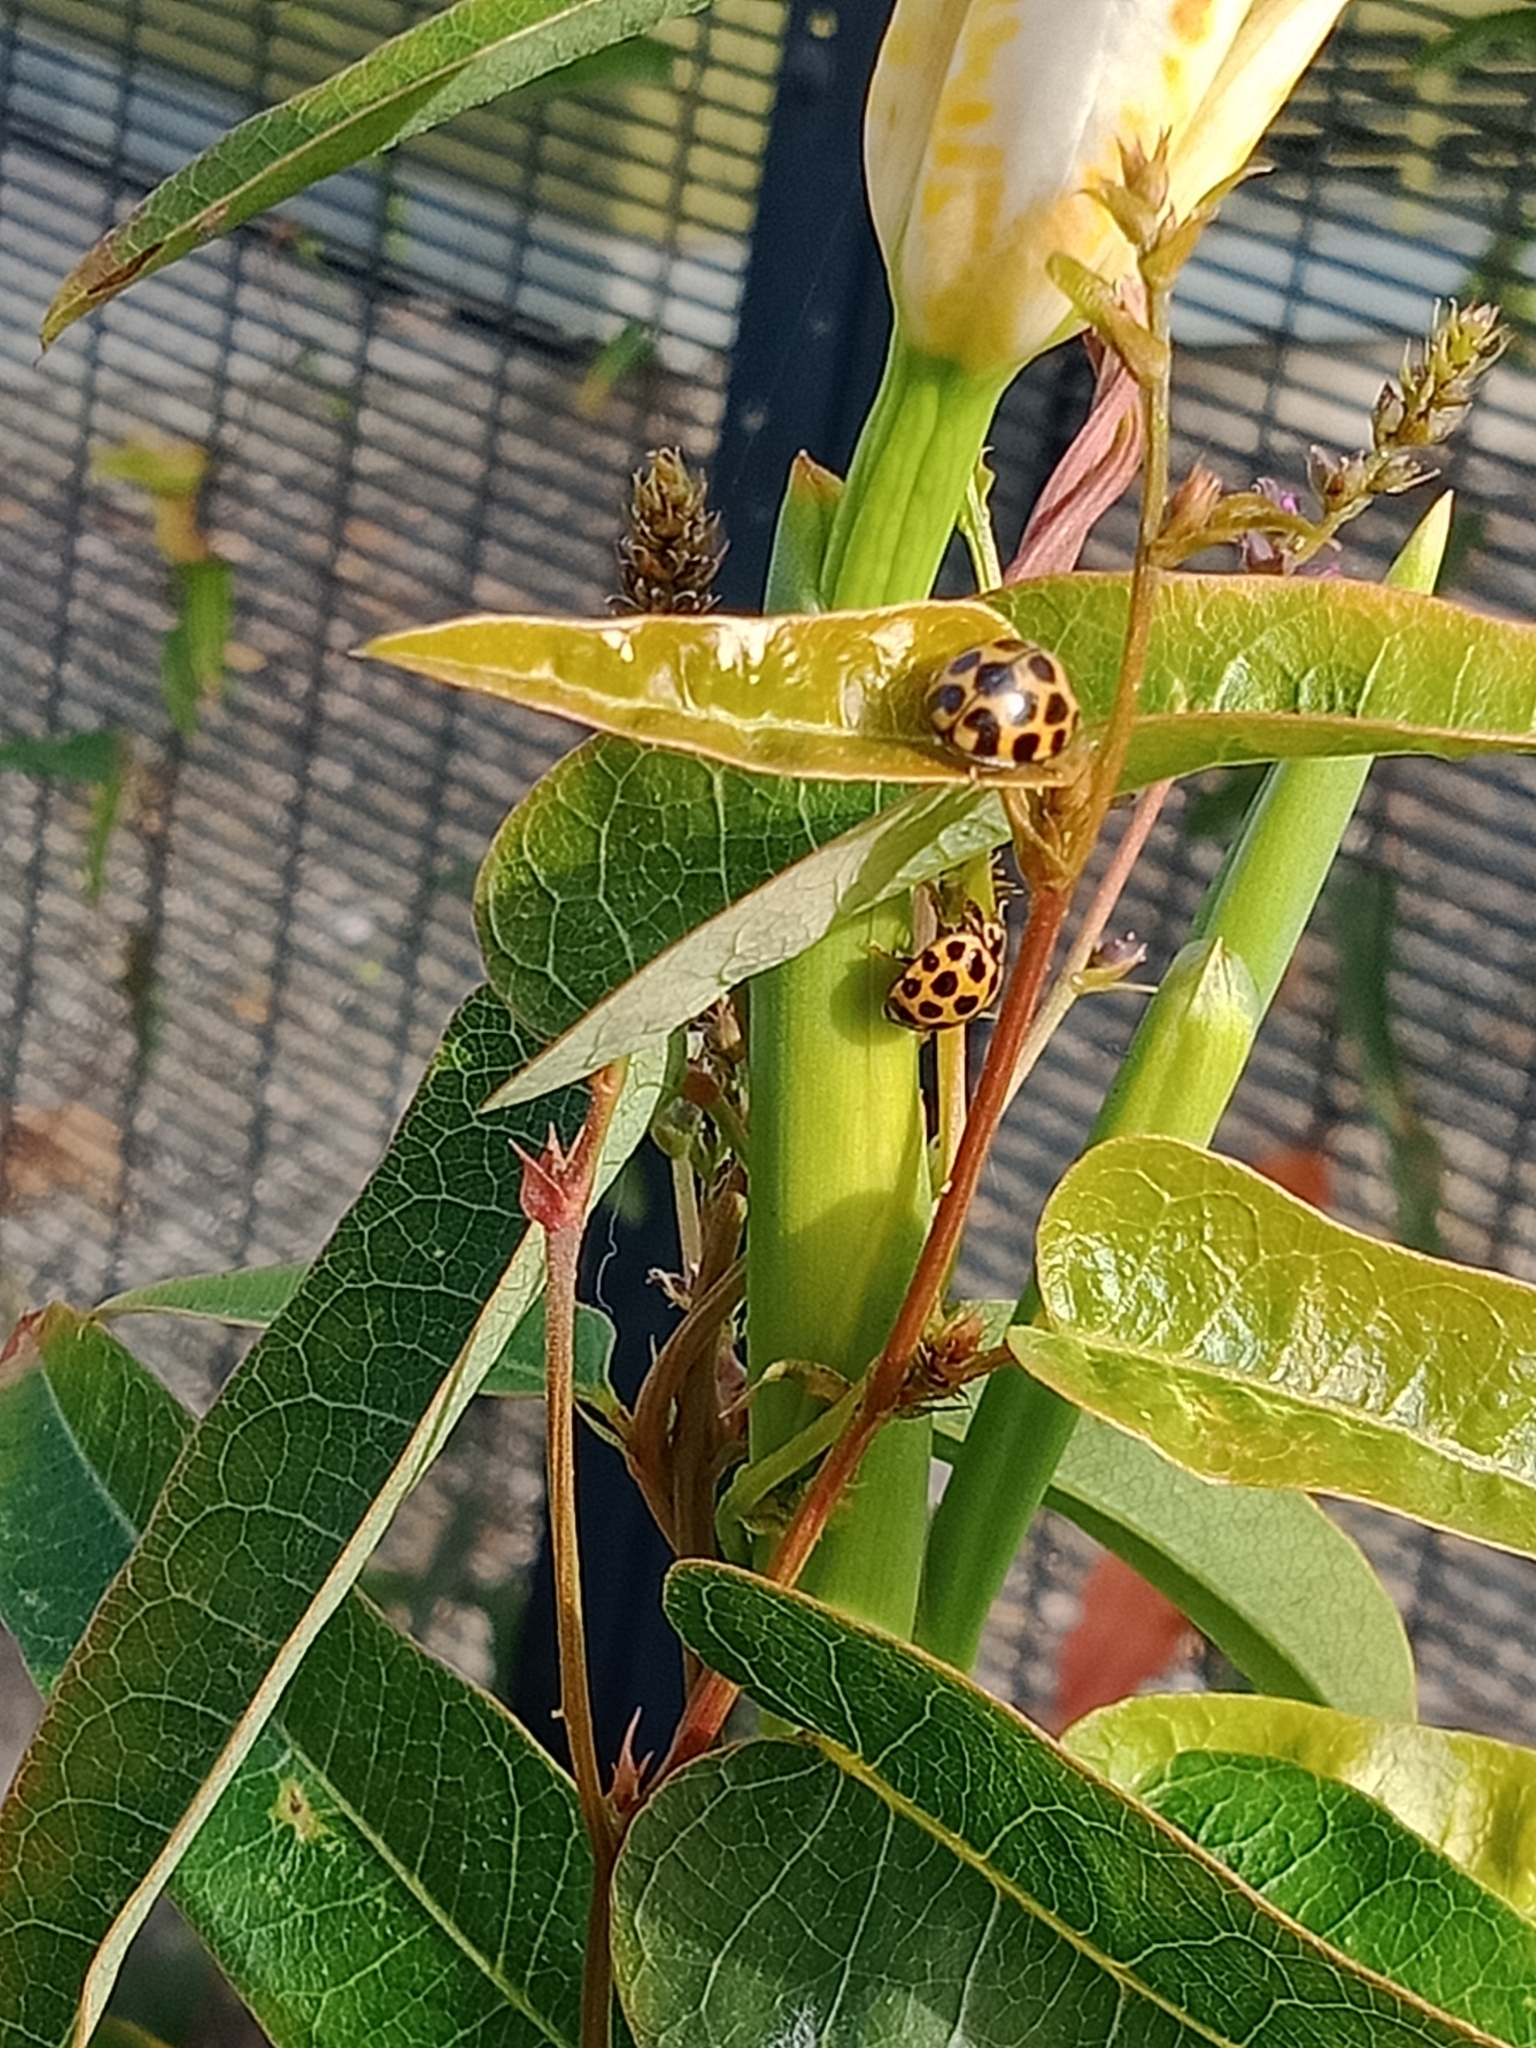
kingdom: Animalia
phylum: Arthropoda
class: Insecta
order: Coleoptera
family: Coccinellidae
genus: Harmonia
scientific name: Harmonia conformis
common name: Common spotted ladybird beetle
